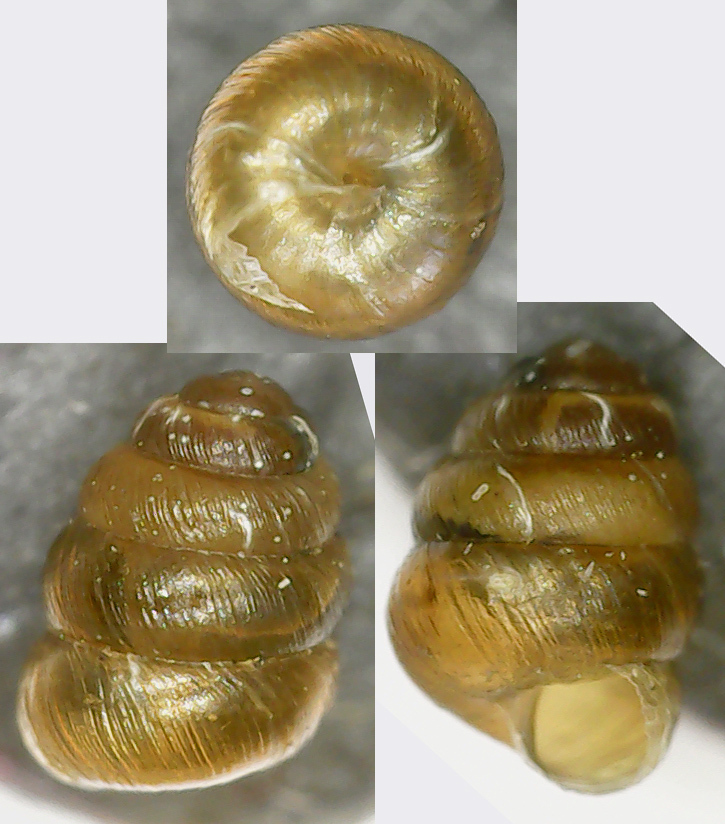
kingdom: Animalia
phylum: Mollusca
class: Gastropoda
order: Stylommatophora
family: Truncatellinidae
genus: Columella
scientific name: Columella aspera
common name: Rough whorl snail
